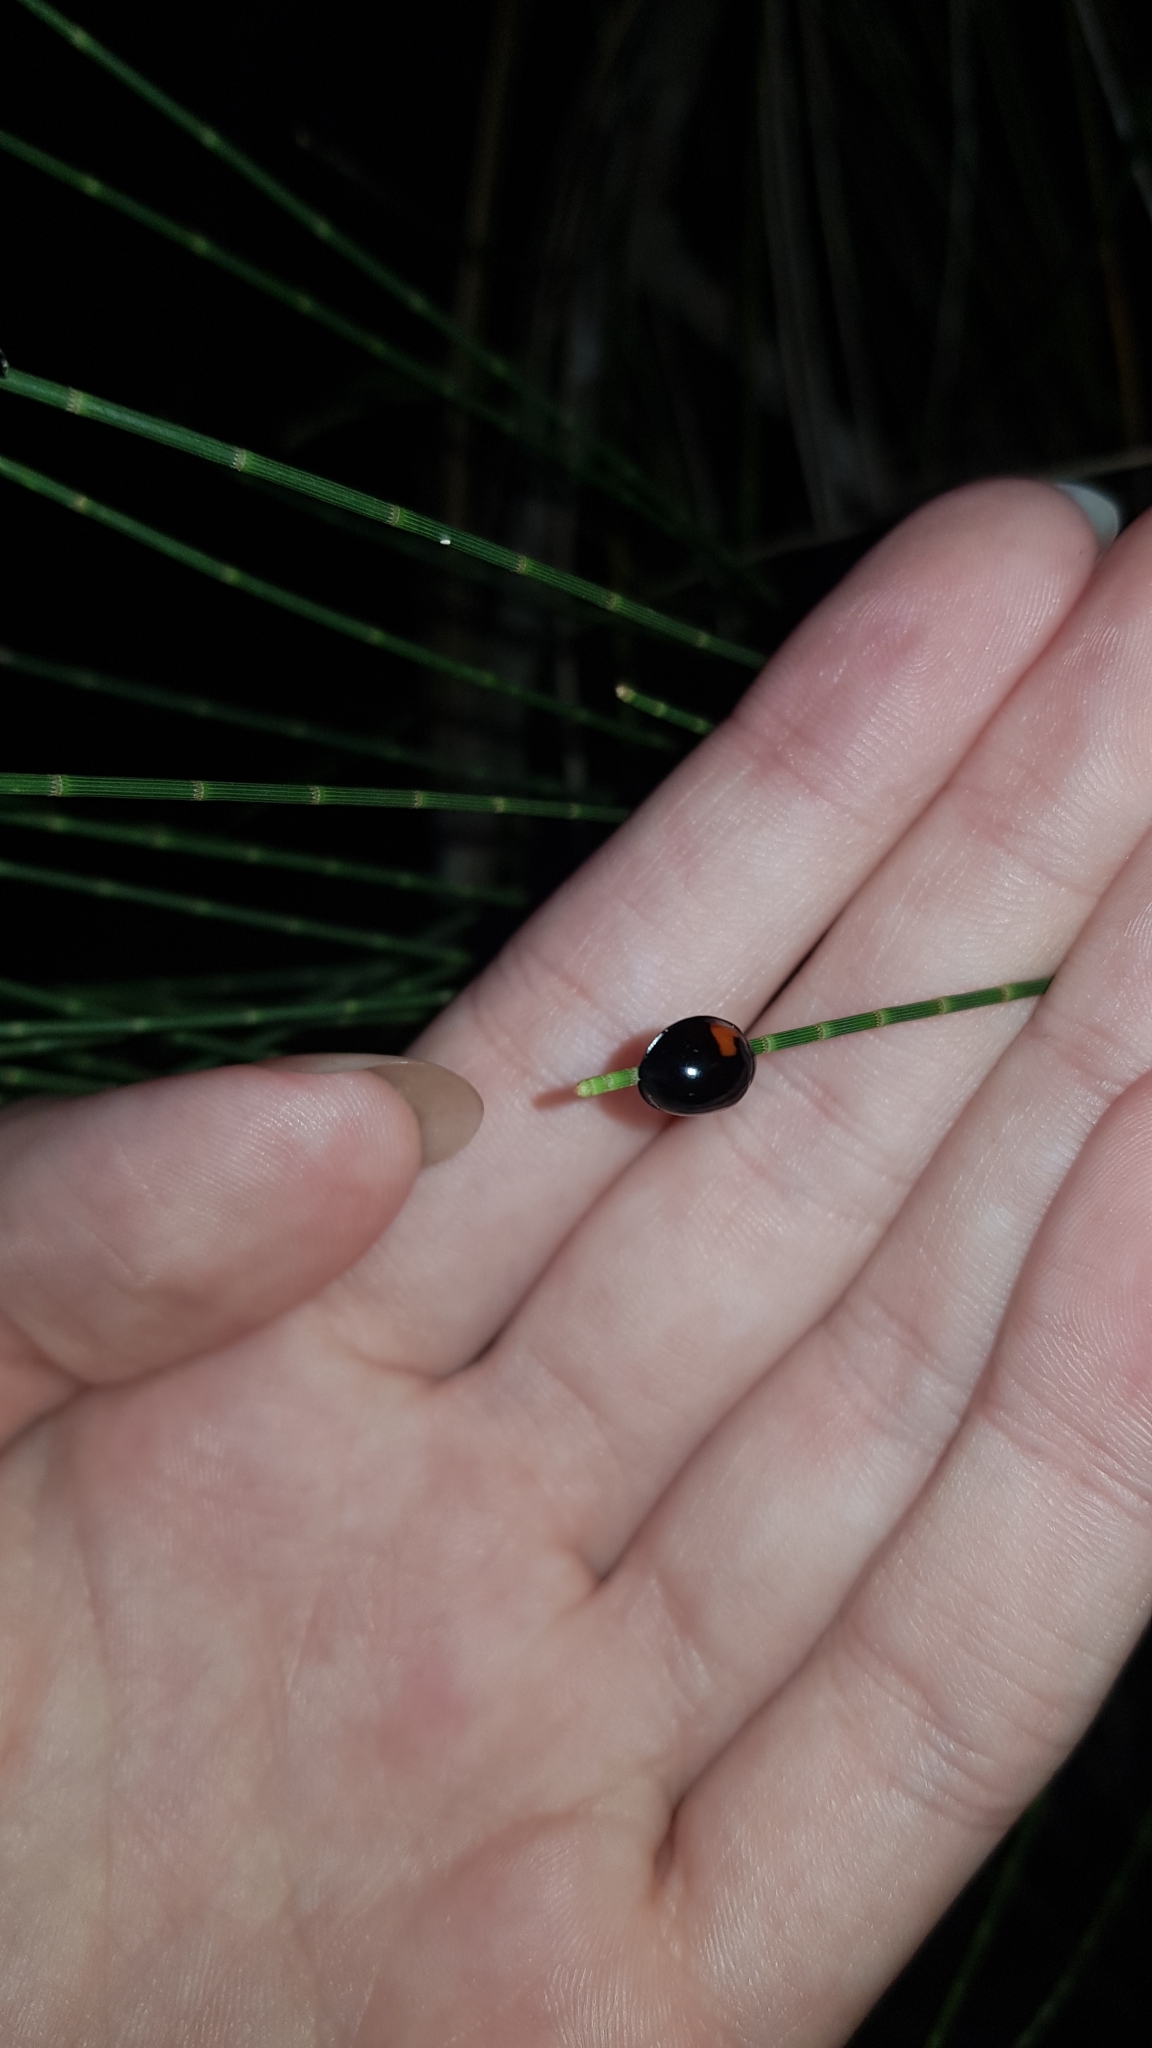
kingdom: Animalia
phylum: Arthropoda
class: Insecta
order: Coleoptera
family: Coccinellidae
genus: Orcus
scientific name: Orcus
